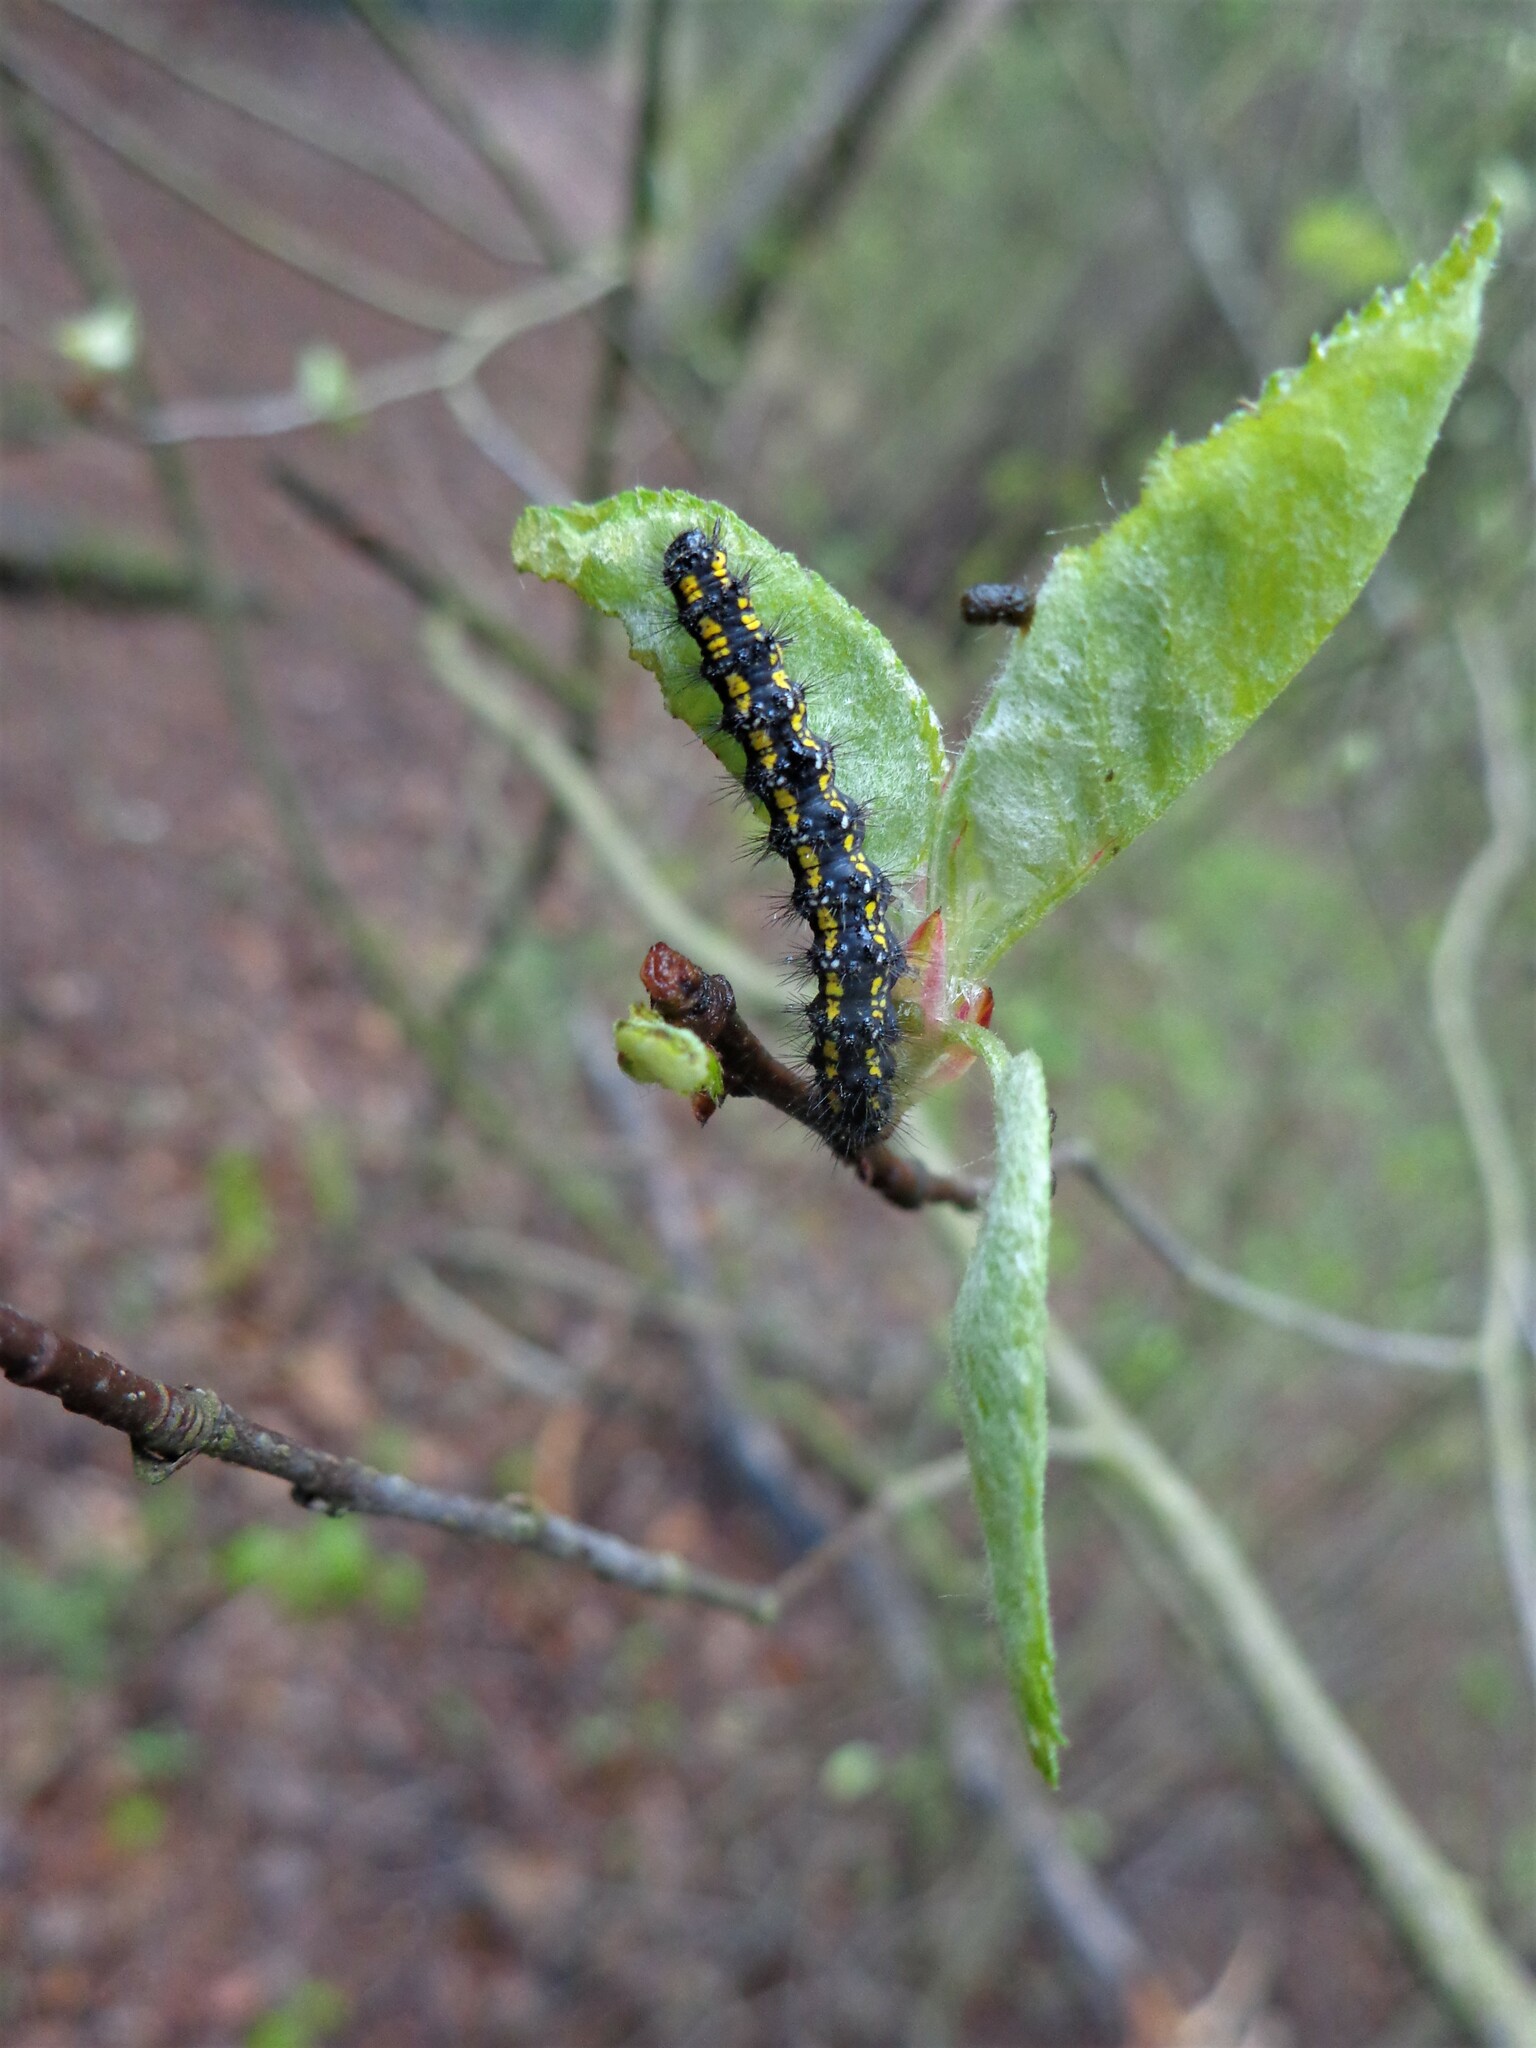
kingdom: Animalia
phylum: Arthropoda
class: Insecta
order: Lepidoptera
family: Erebidae
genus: Callimorpha
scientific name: Callimorpha dominula
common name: Scarlet tiger
